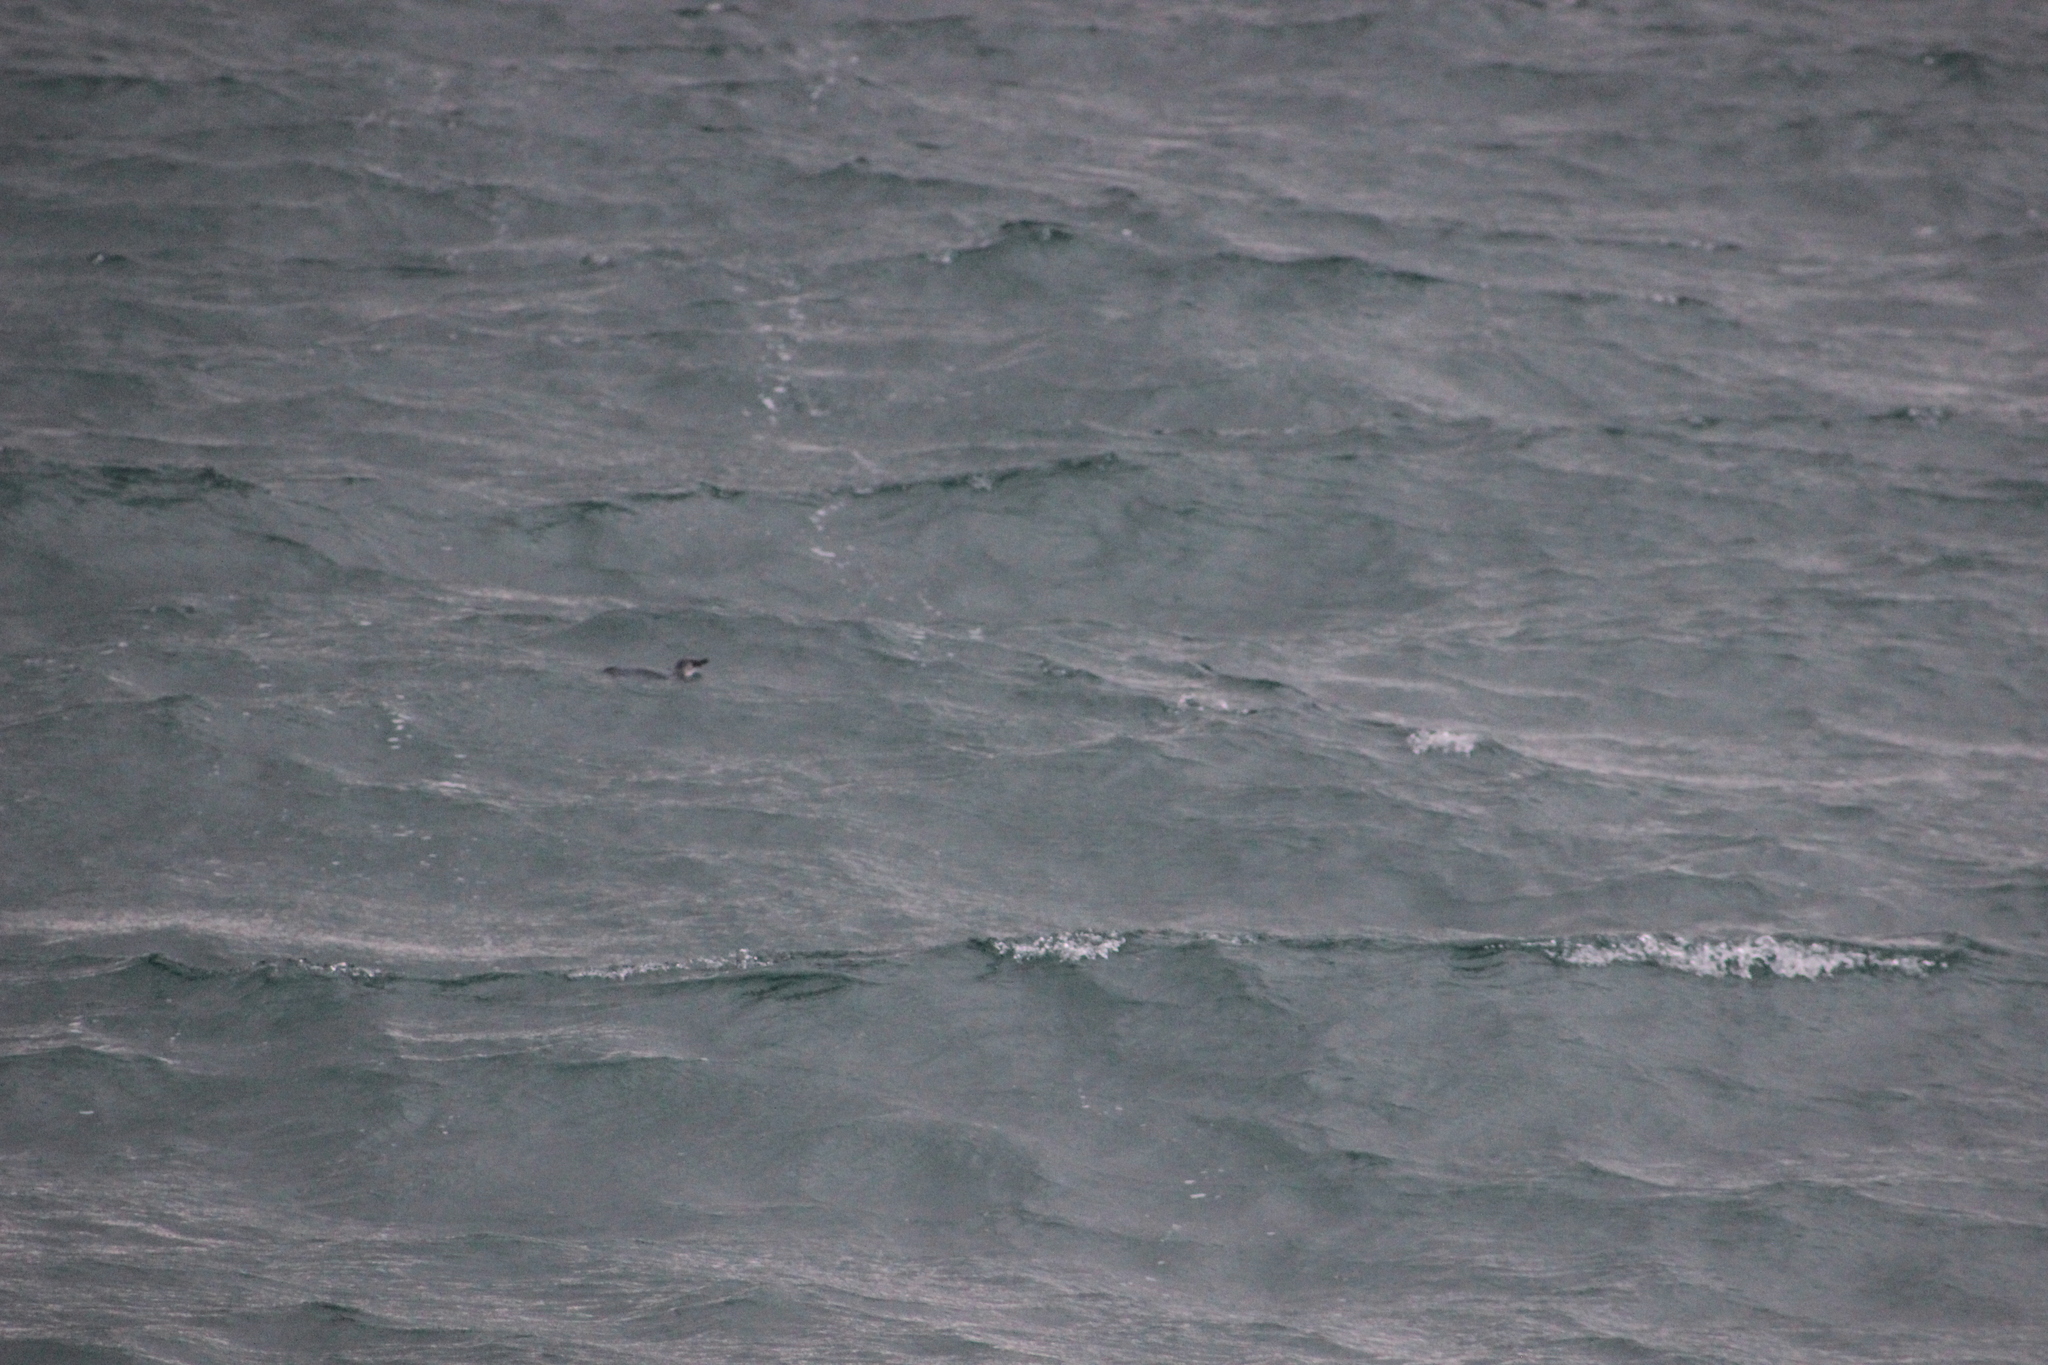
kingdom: Animalia
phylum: Chordata
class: Aves
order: Sphenisciformes
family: Spheniscidae
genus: Eudyptula
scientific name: Eudyptula minor
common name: Little penguin
